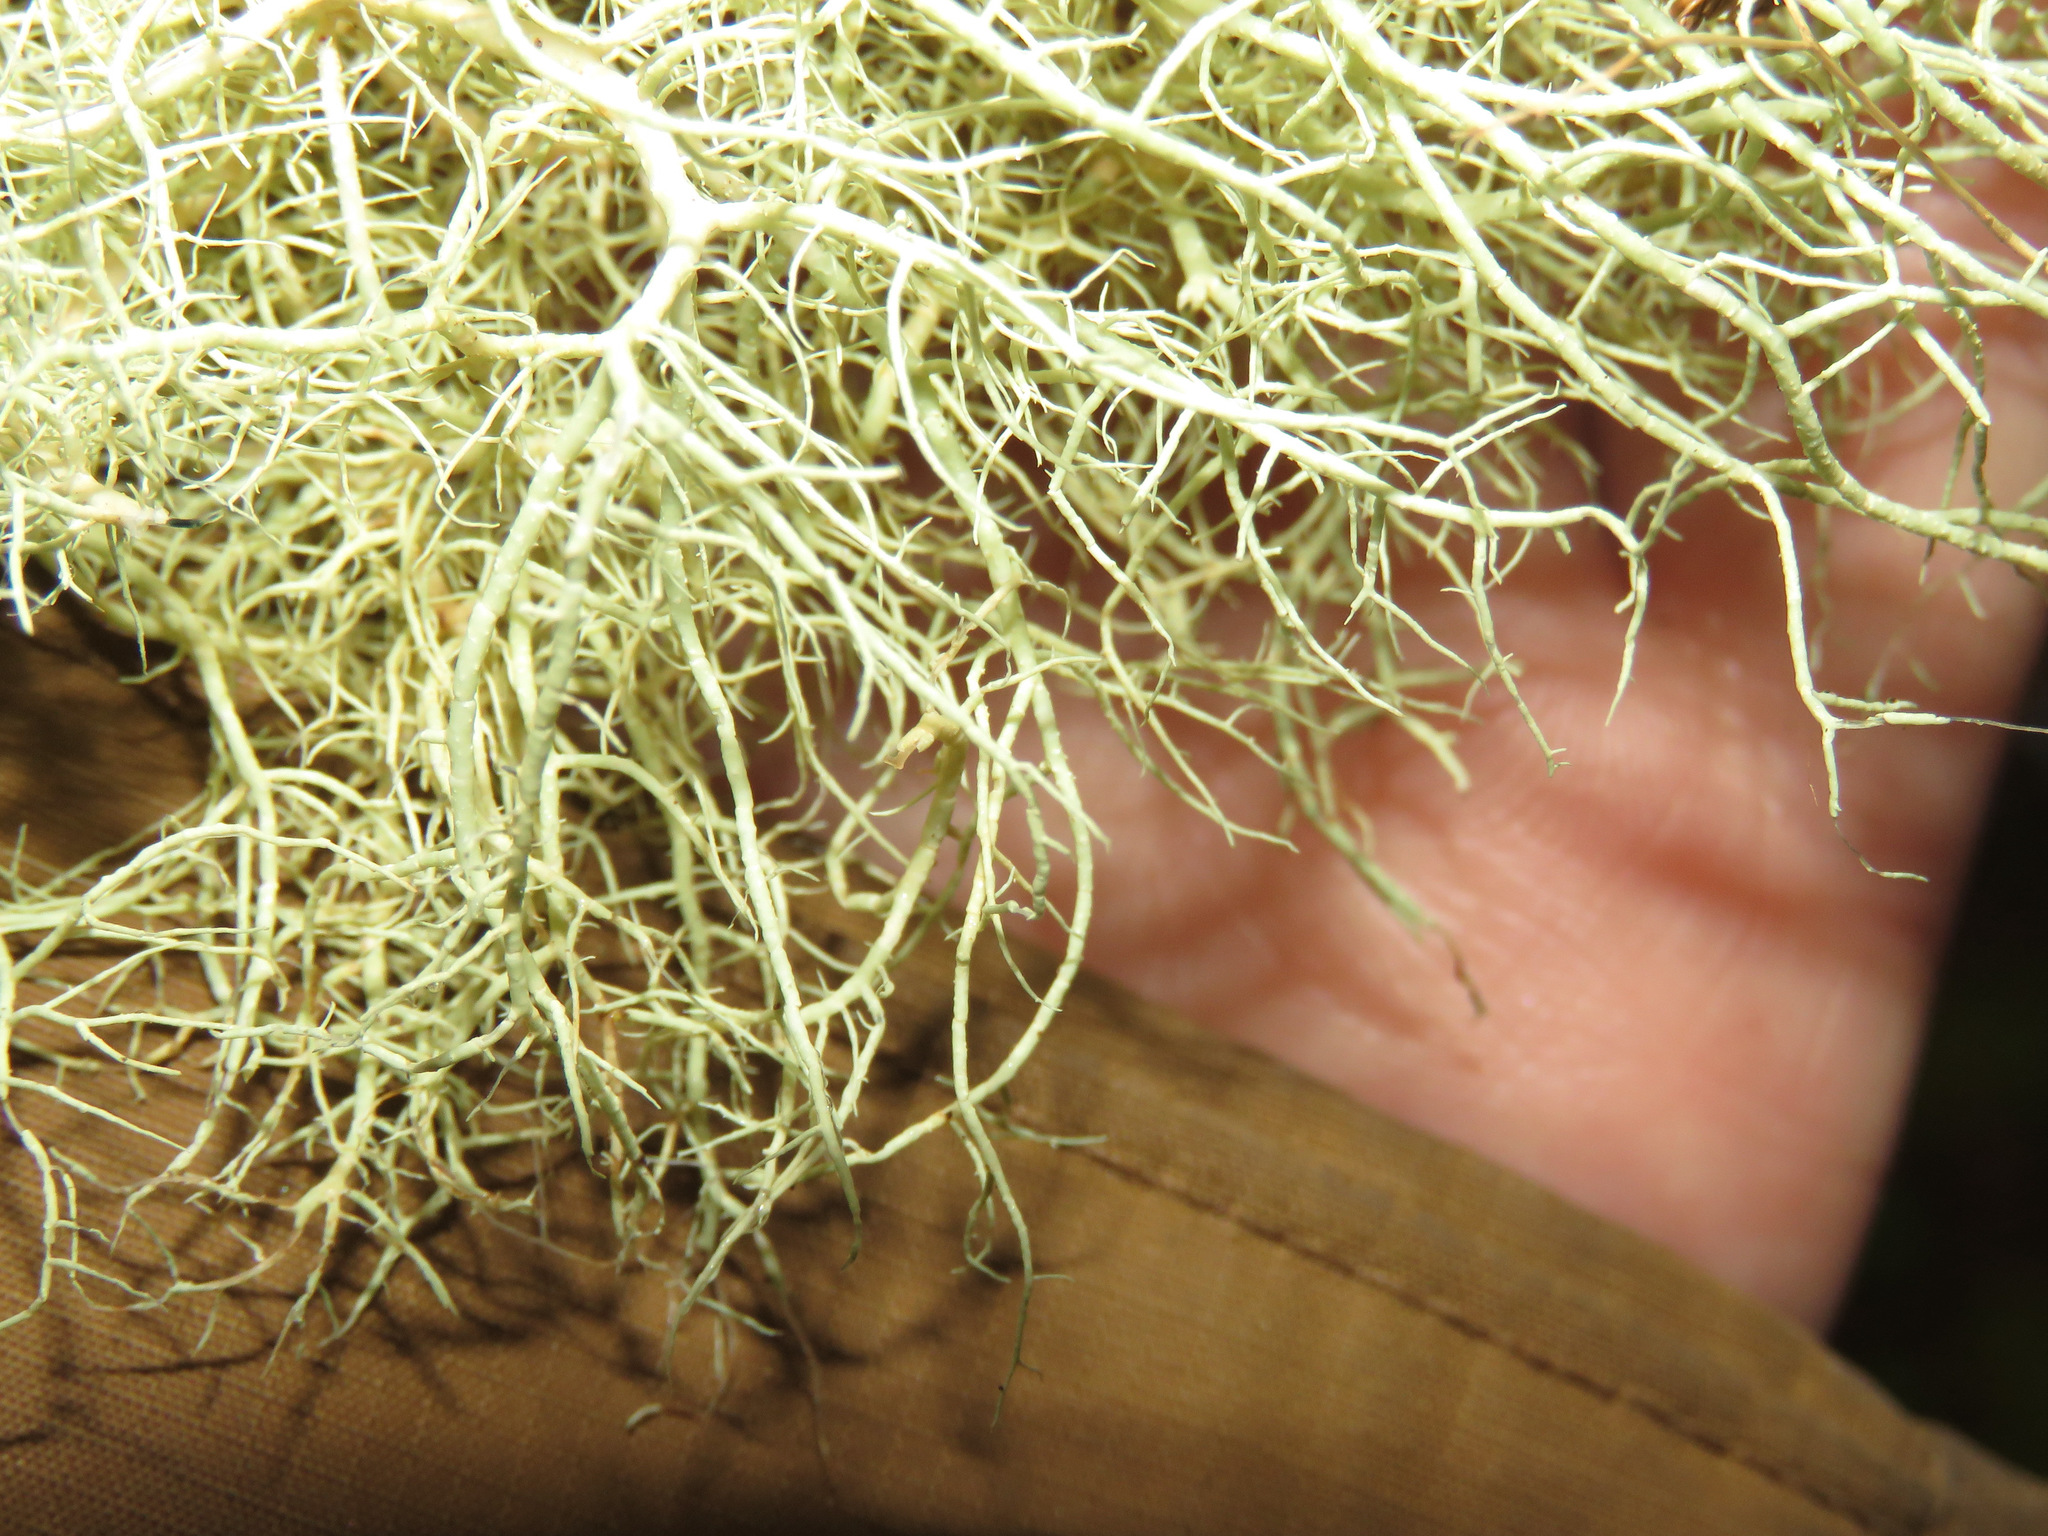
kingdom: Fungi
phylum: Ascomycota
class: Lecanoromycetes
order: Lecanorales
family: Parmeliaceae
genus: Usnea
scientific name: Usnea hirta
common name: Bristly beard lichen
